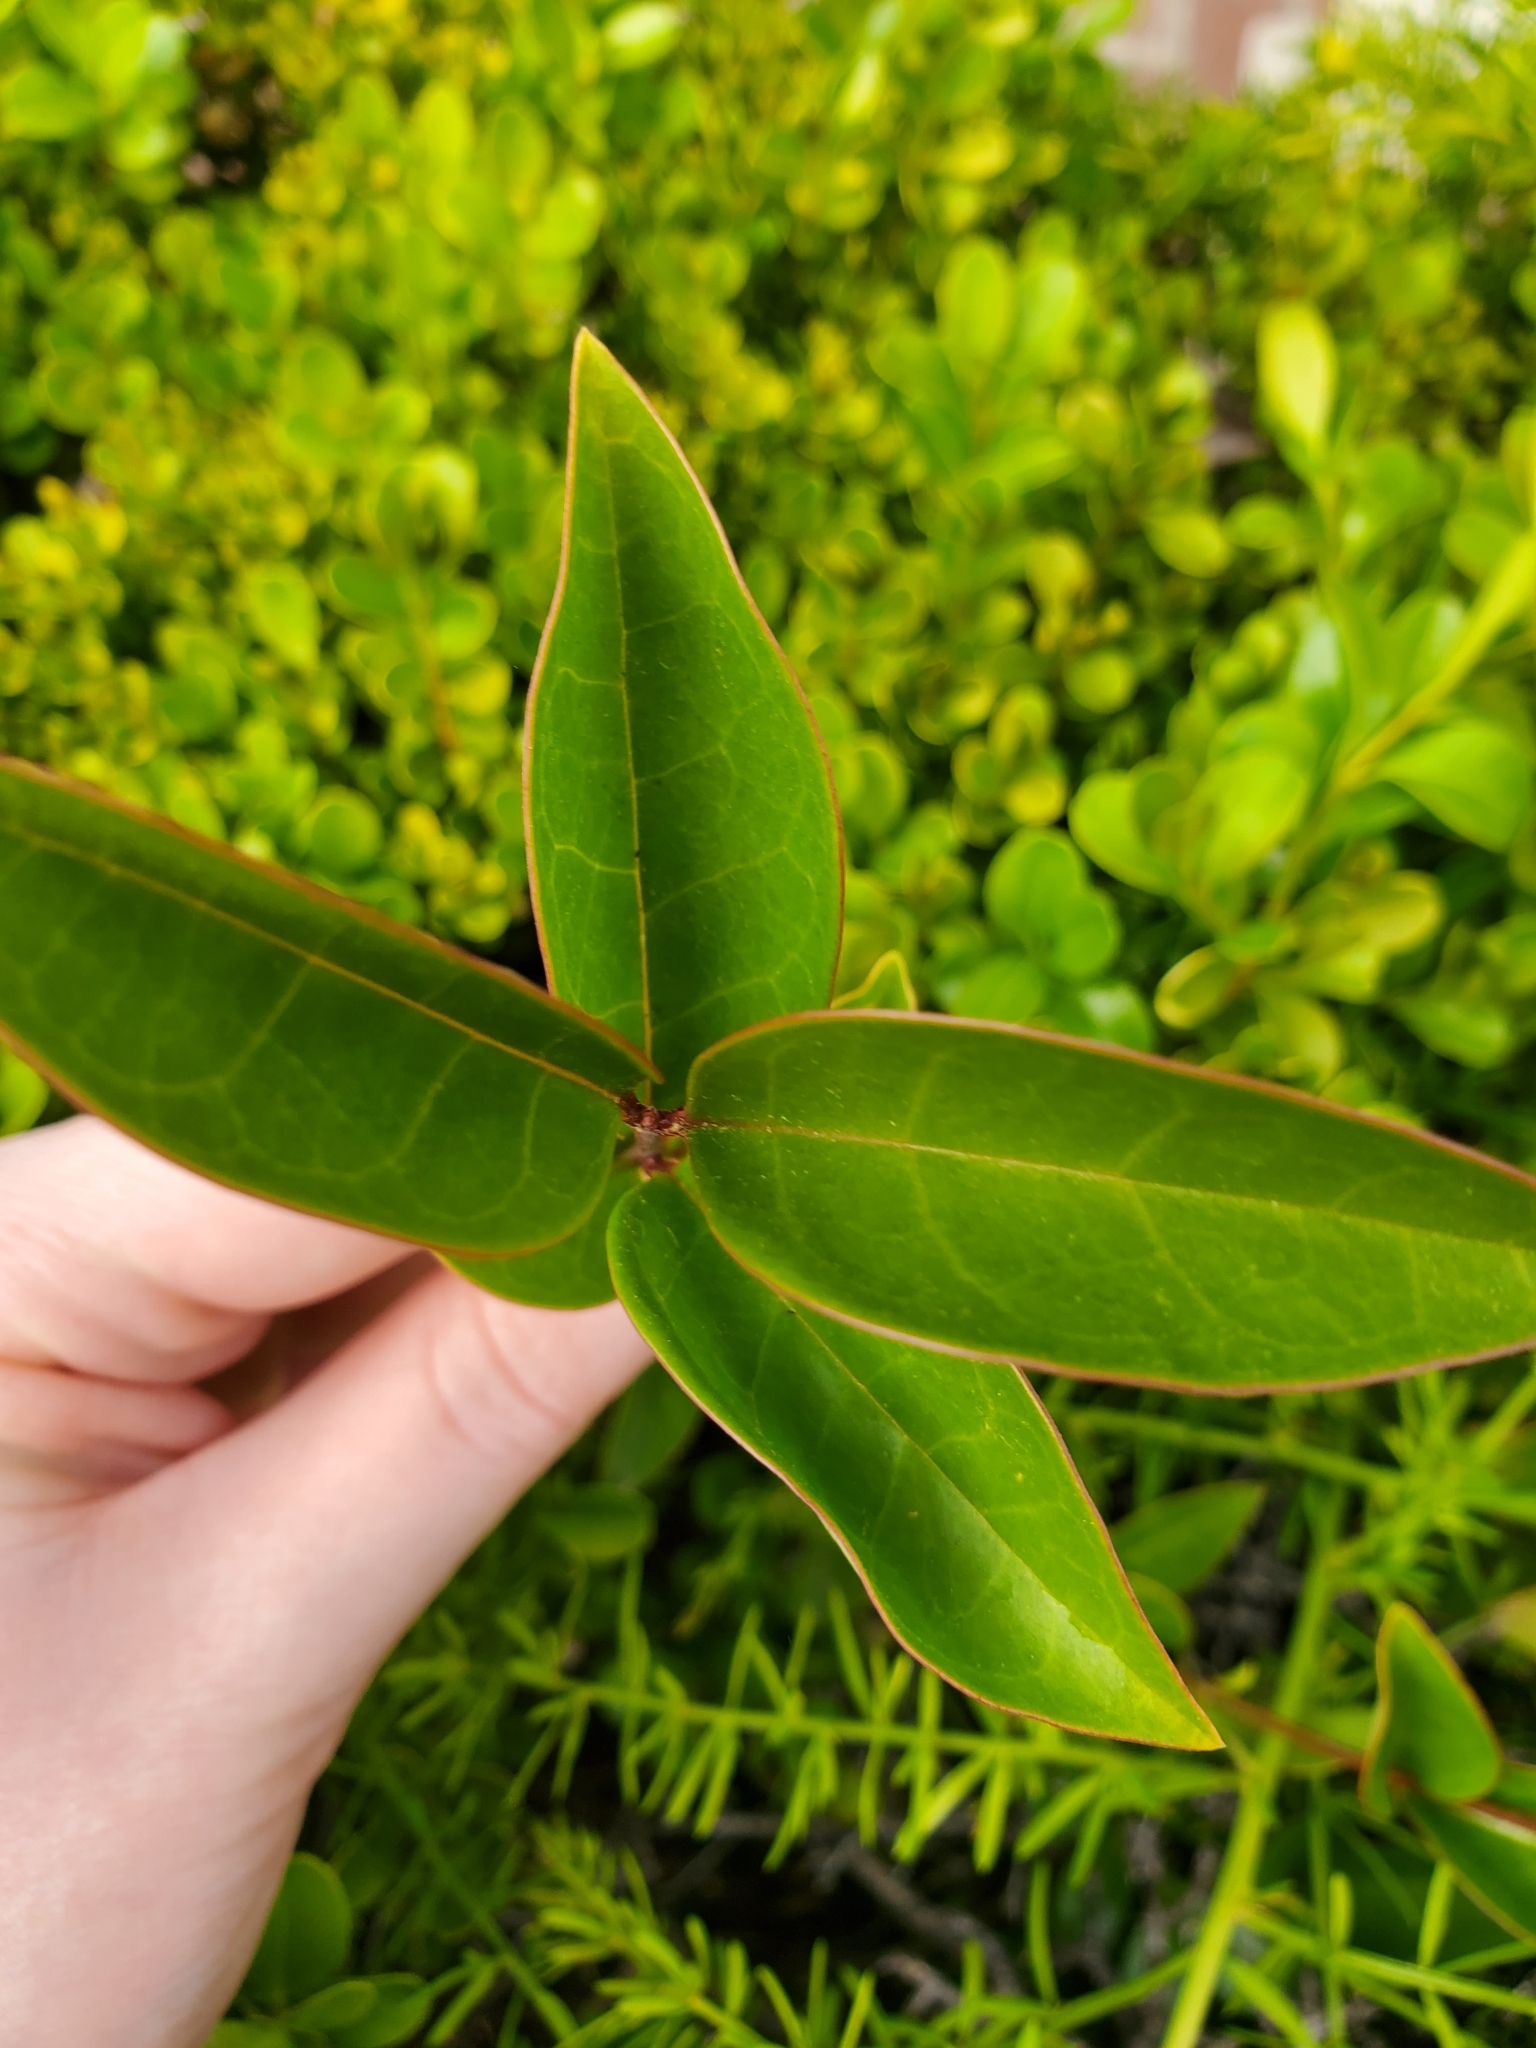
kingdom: Plantae
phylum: Tracheophyta
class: Magnoliopsida
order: Lamiales
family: Oleaceae
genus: Ligustrum
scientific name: Ligustrum lucidum
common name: Glossy privet
